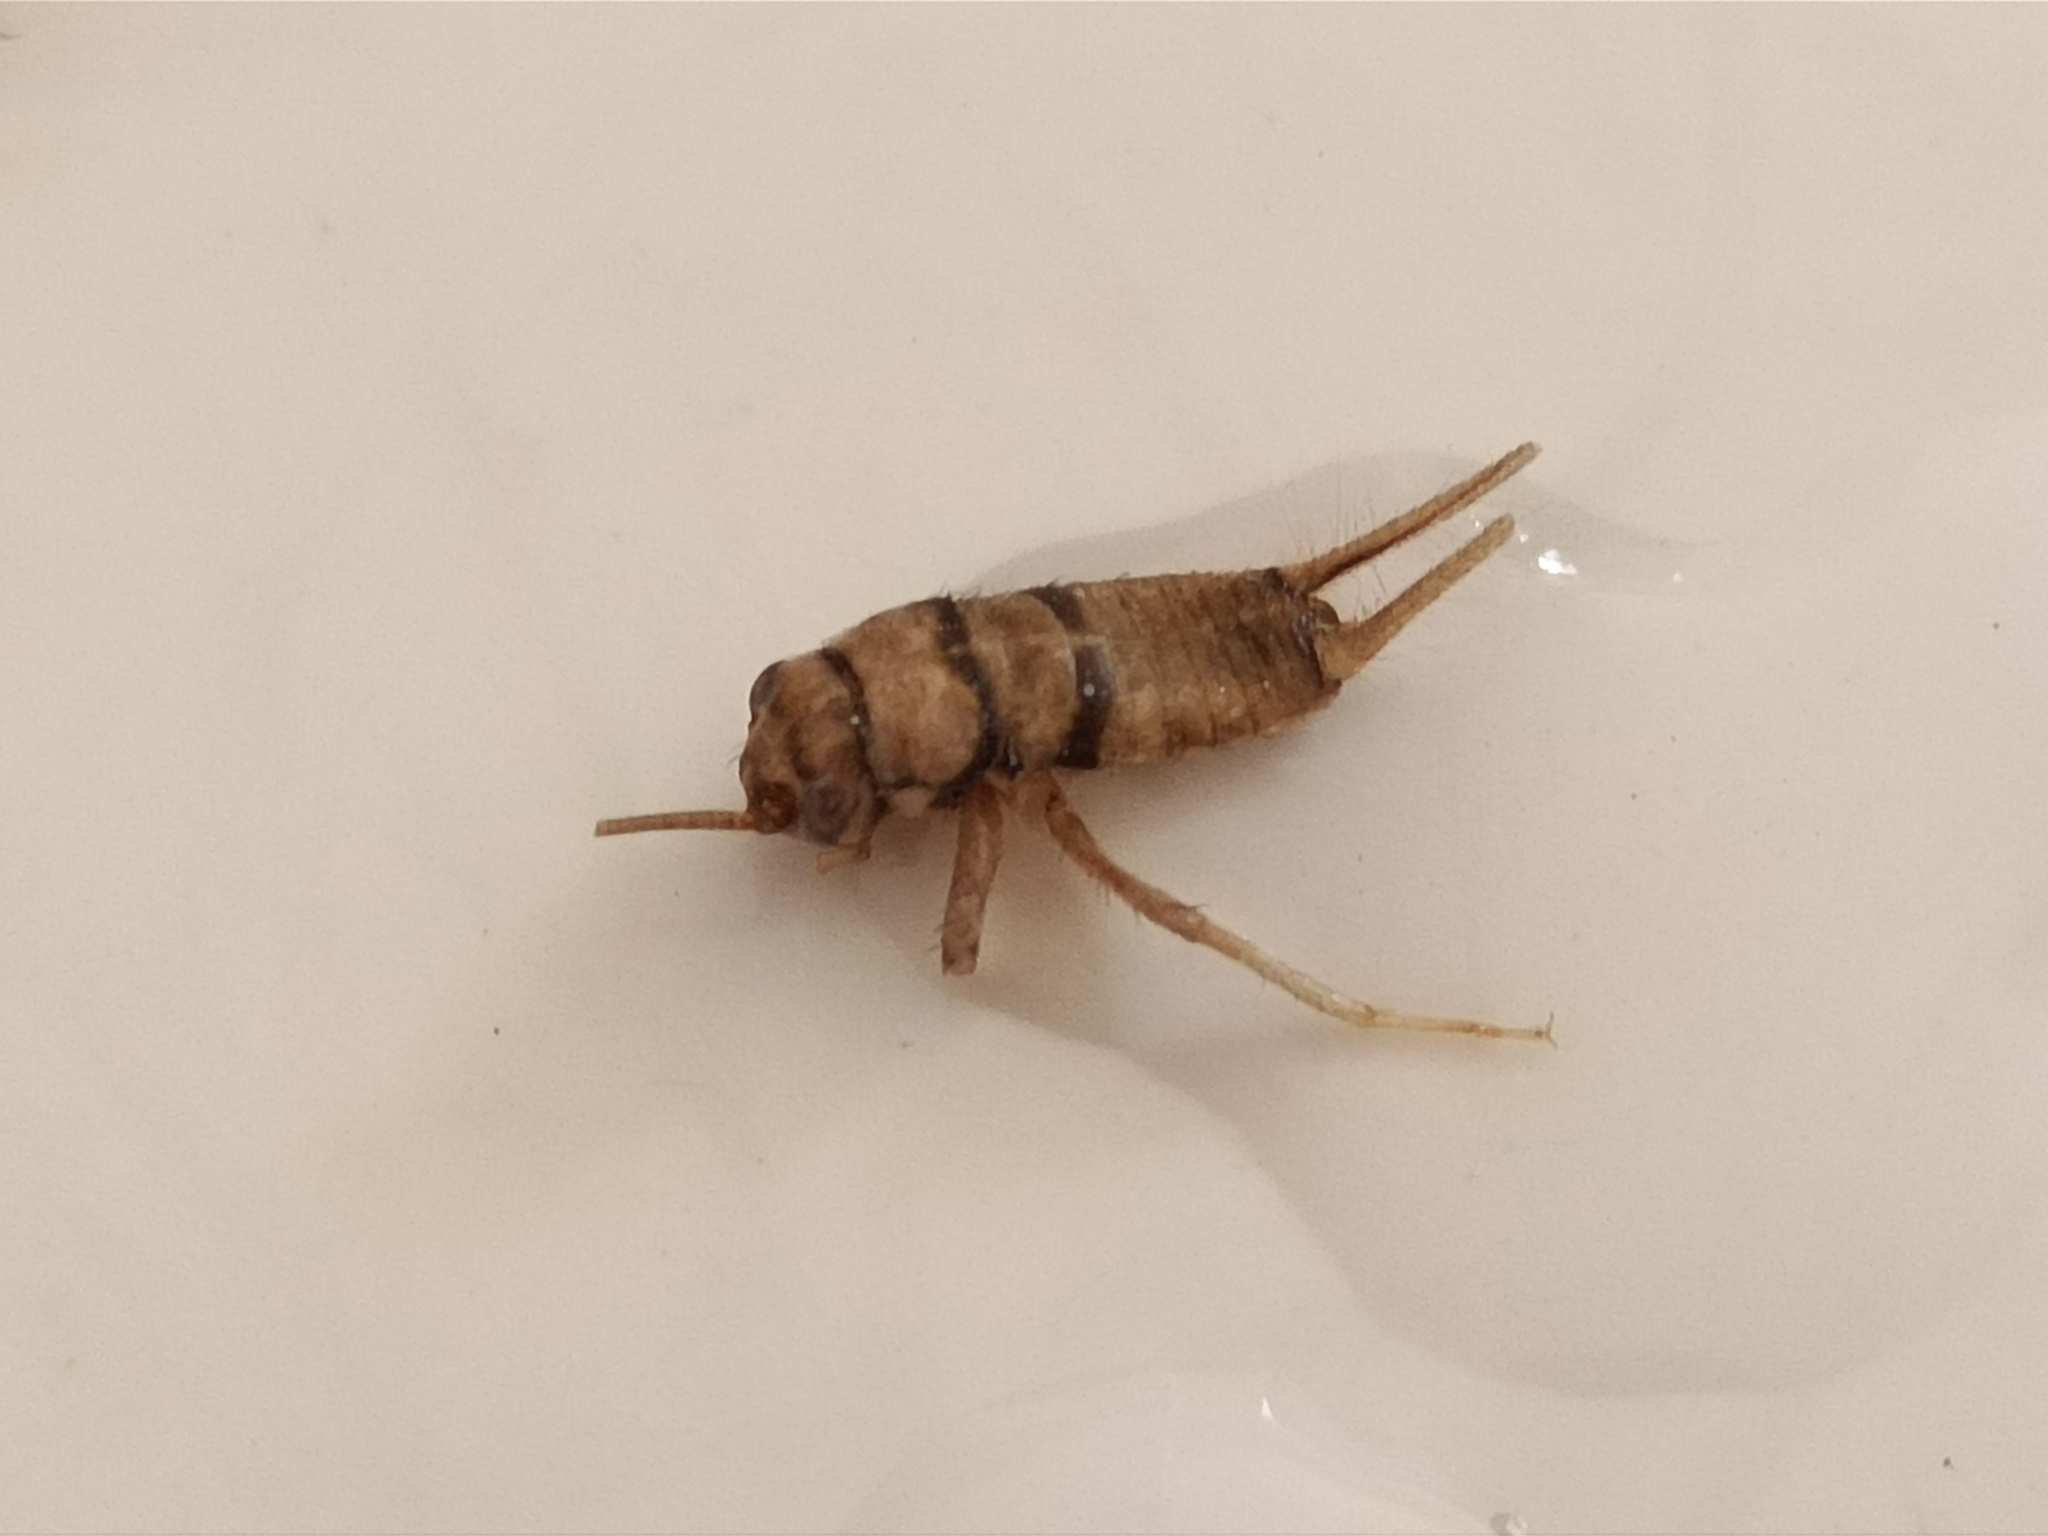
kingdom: Animalia
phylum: Arthropoda
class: Insecta
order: Orthoptera
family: Gryllidae
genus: Gryllodes
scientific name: Gryllodes sigillatus
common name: Tropical house cricket
